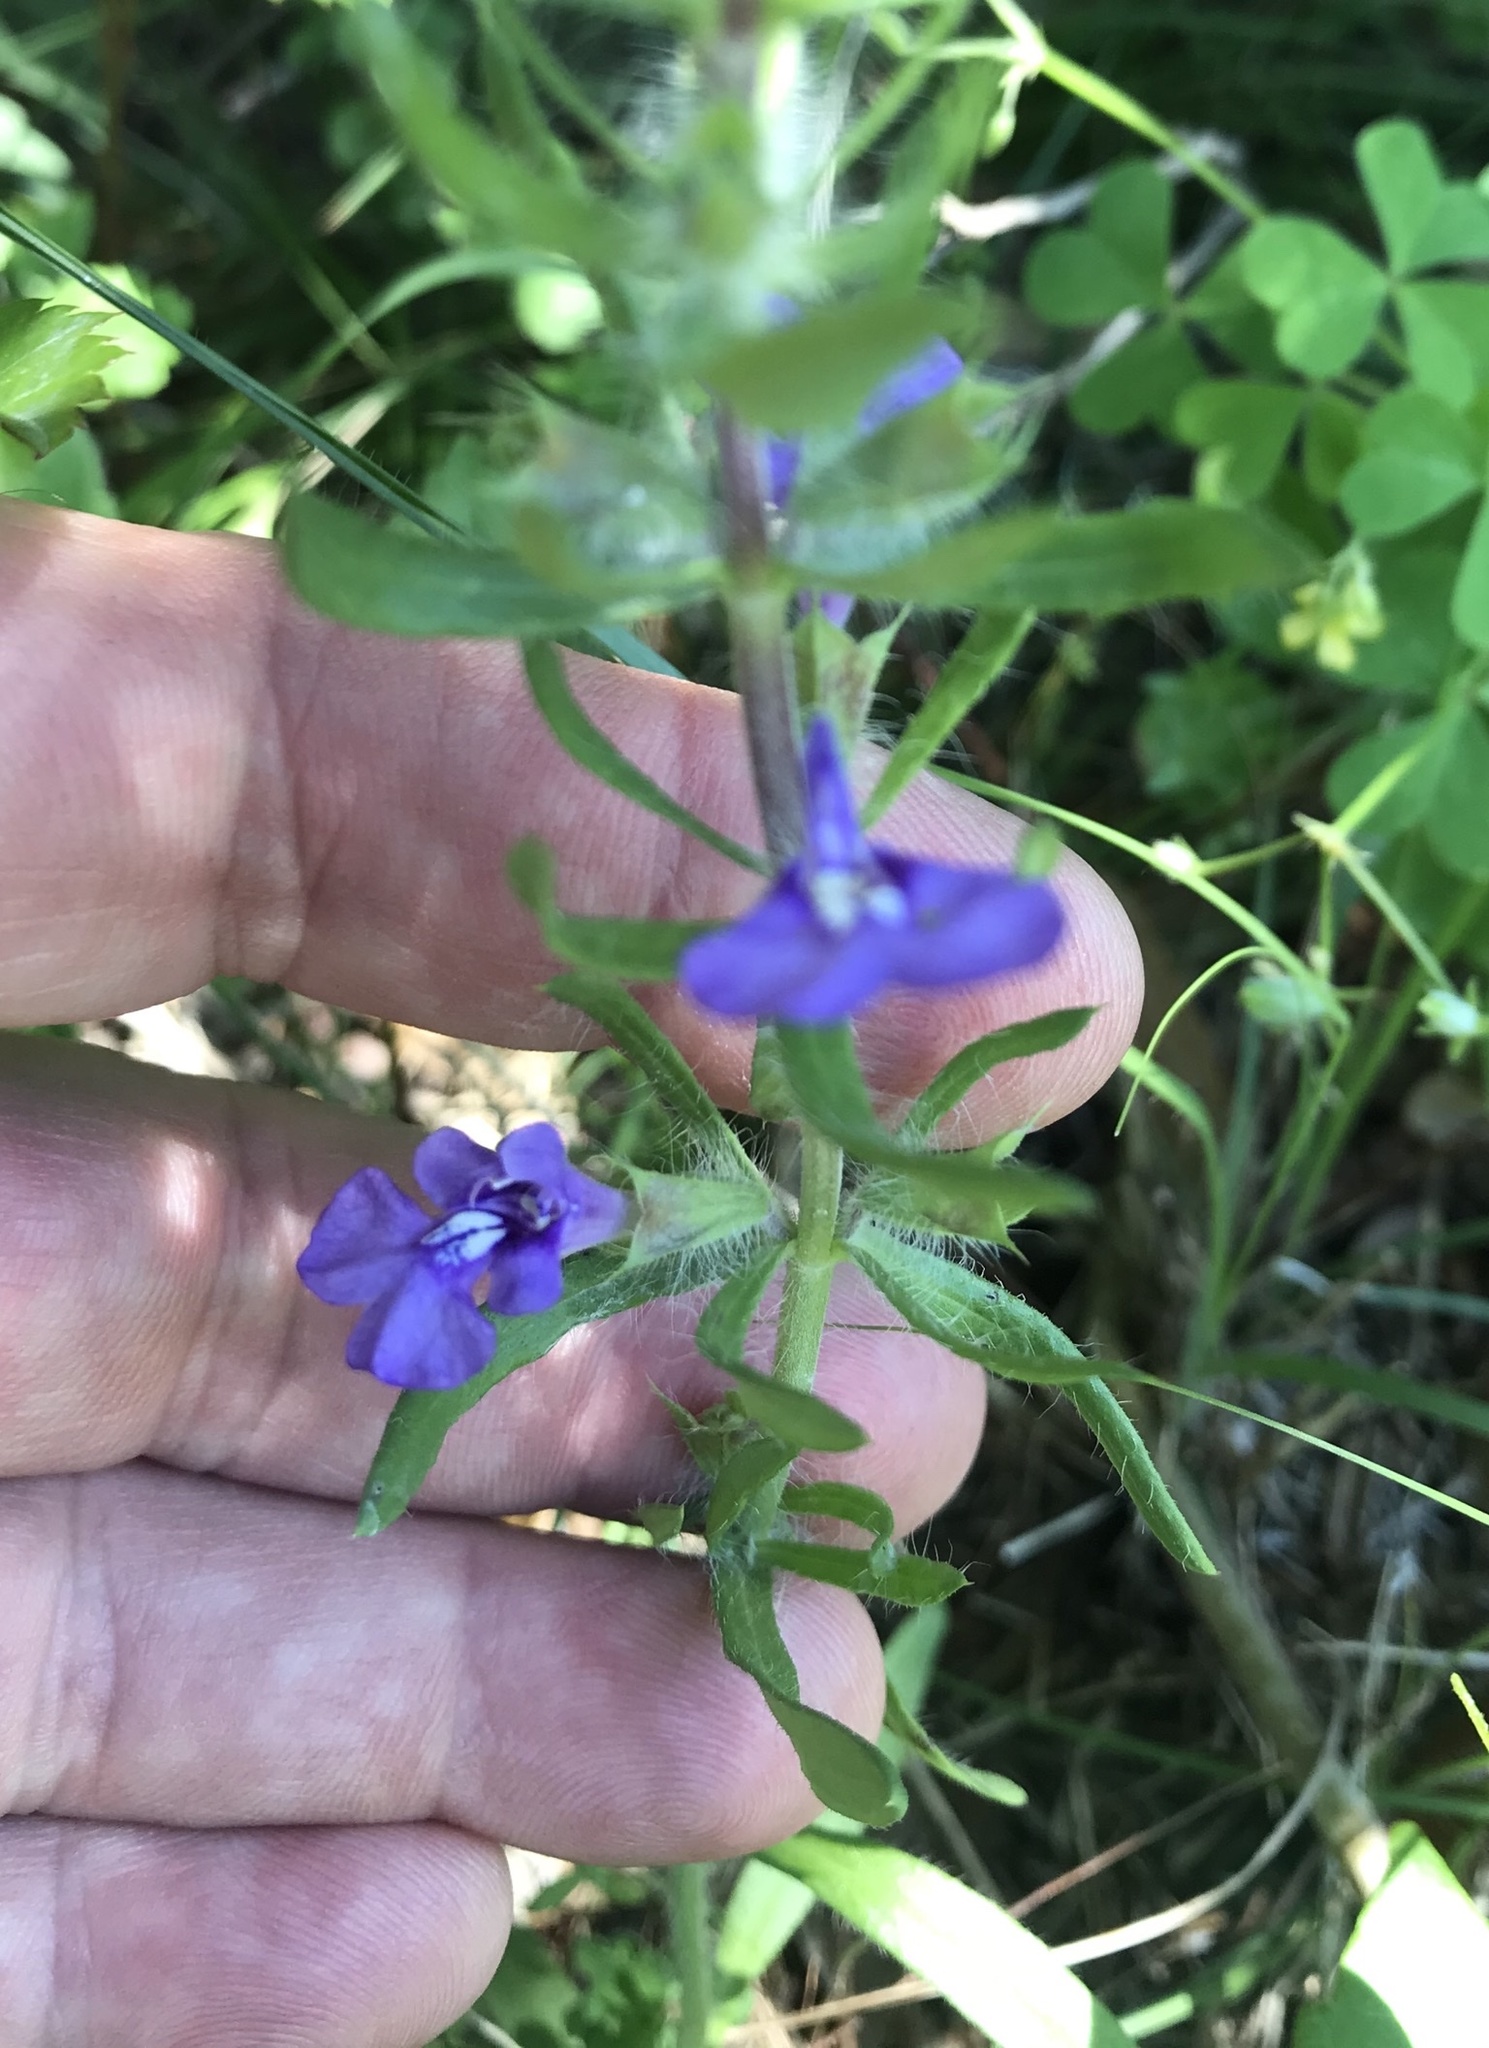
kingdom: Plantae
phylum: Tracheophyta
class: Magnoliopsida
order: Lamiales
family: Lamiaceae
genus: Salvia
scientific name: Salvia texana
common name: Texas sage
